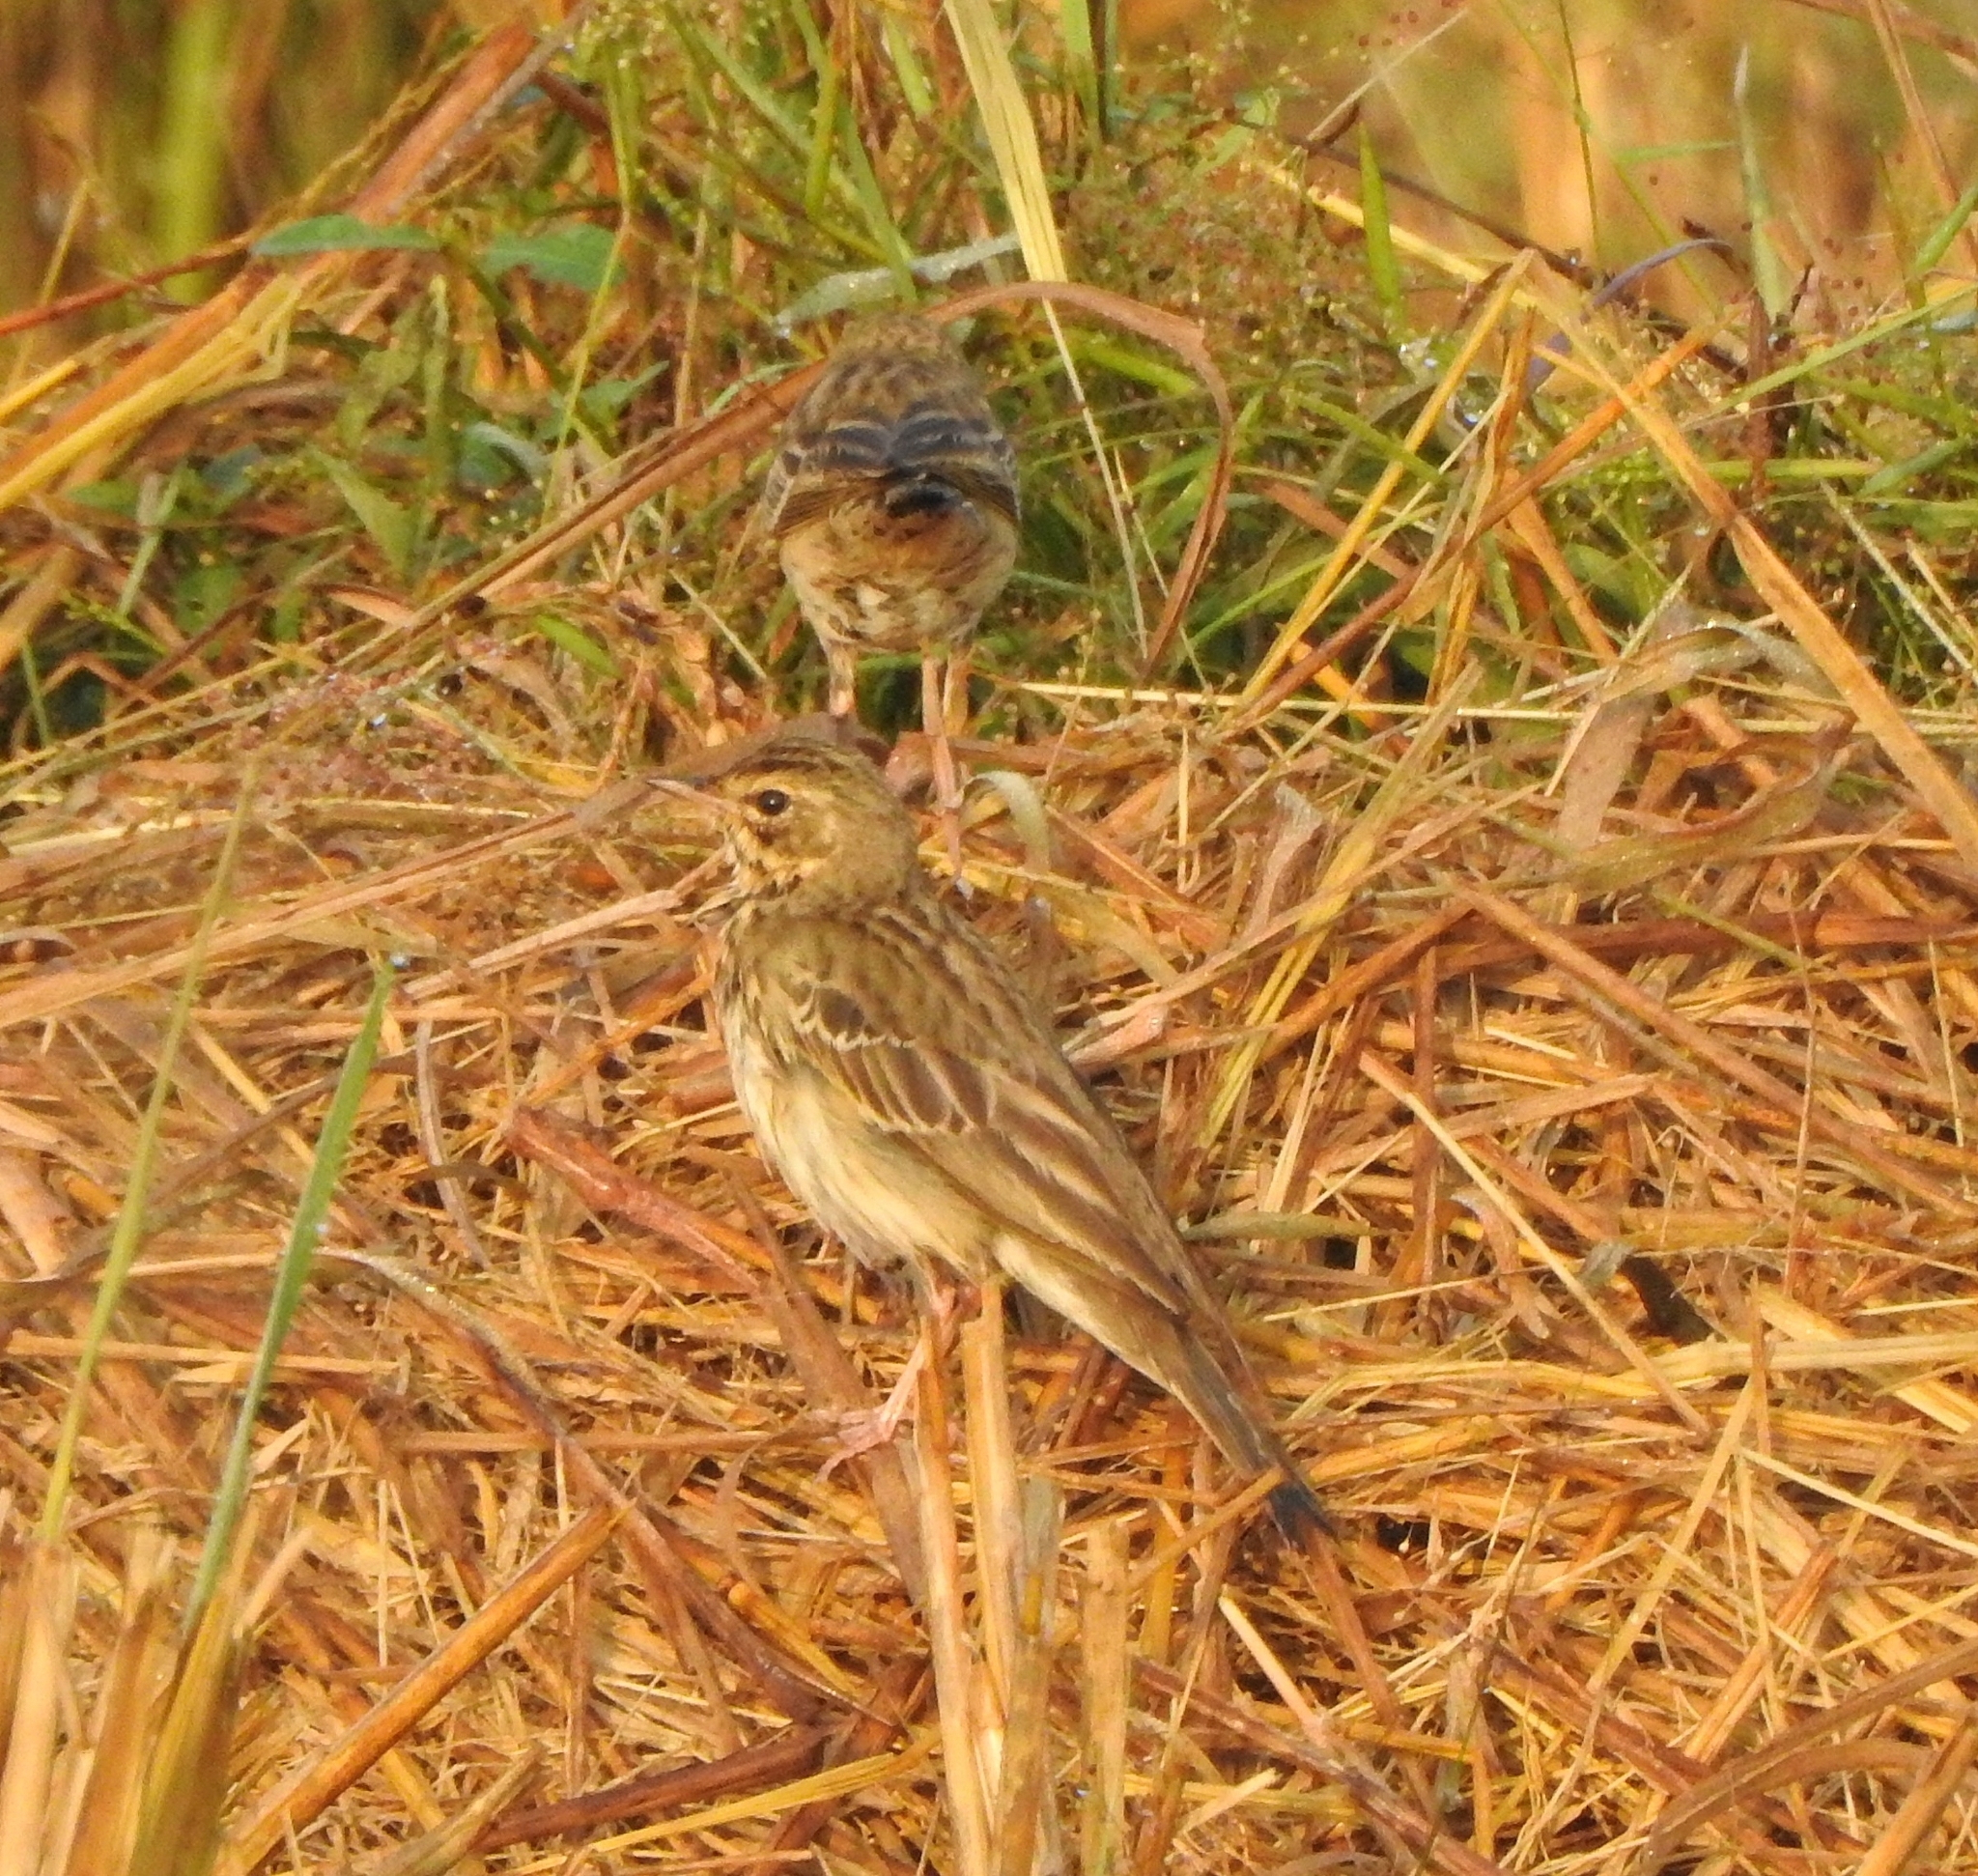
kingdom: Animalia
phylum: Chordata
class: Aves
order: Passeriformes
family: Motacillidae
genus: Anthus
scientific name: Anthus trivialis
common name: Tree pipit
